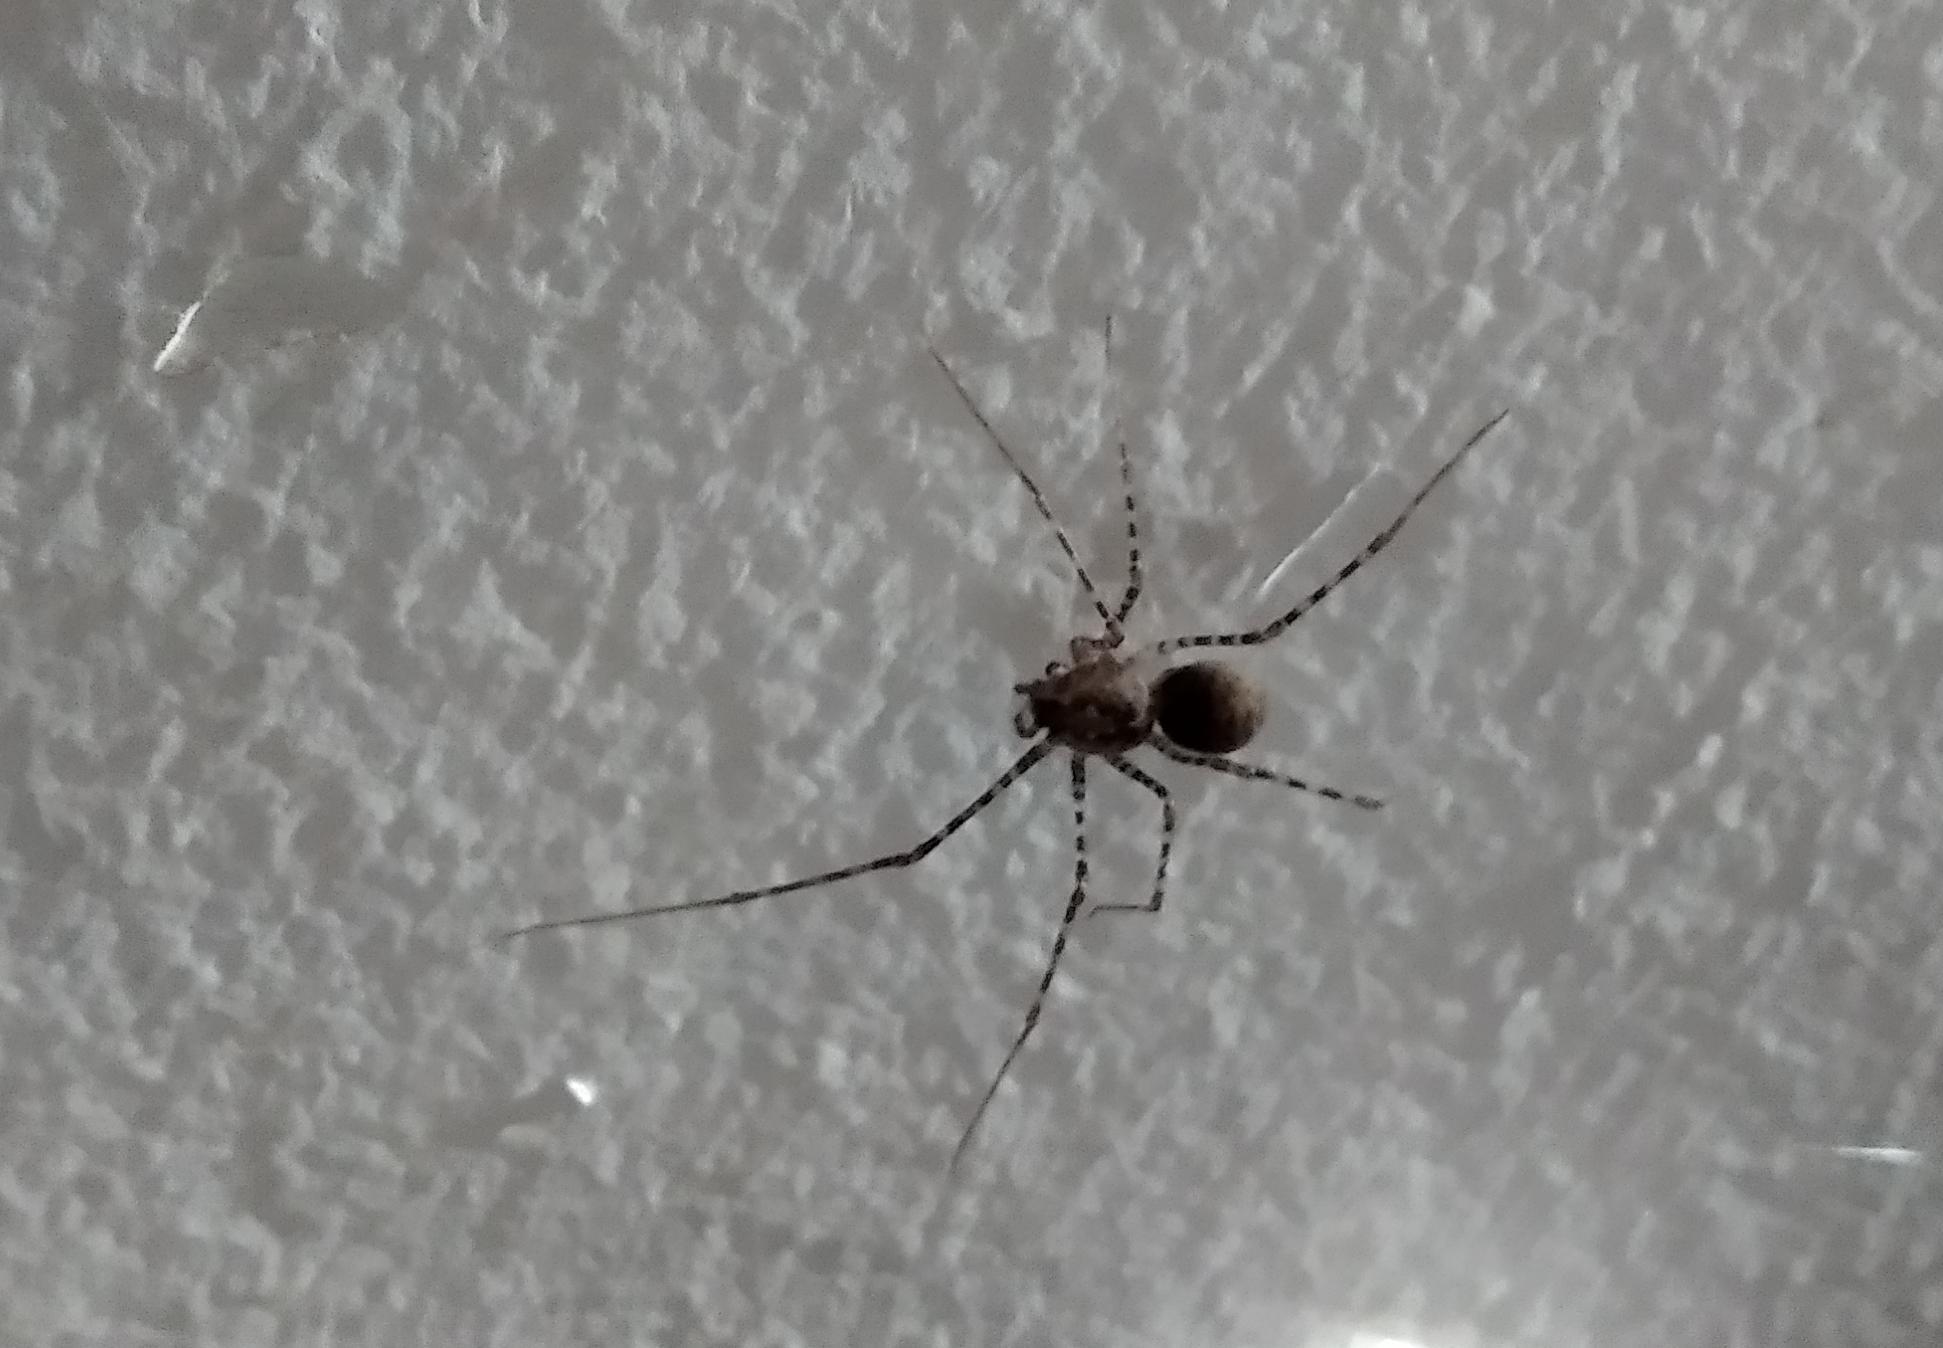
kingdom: Animalia
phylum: Arthropoda
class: Arachnida
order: Araneae
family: Scytodidae
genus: Scytodes
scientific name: Scytodes globula
